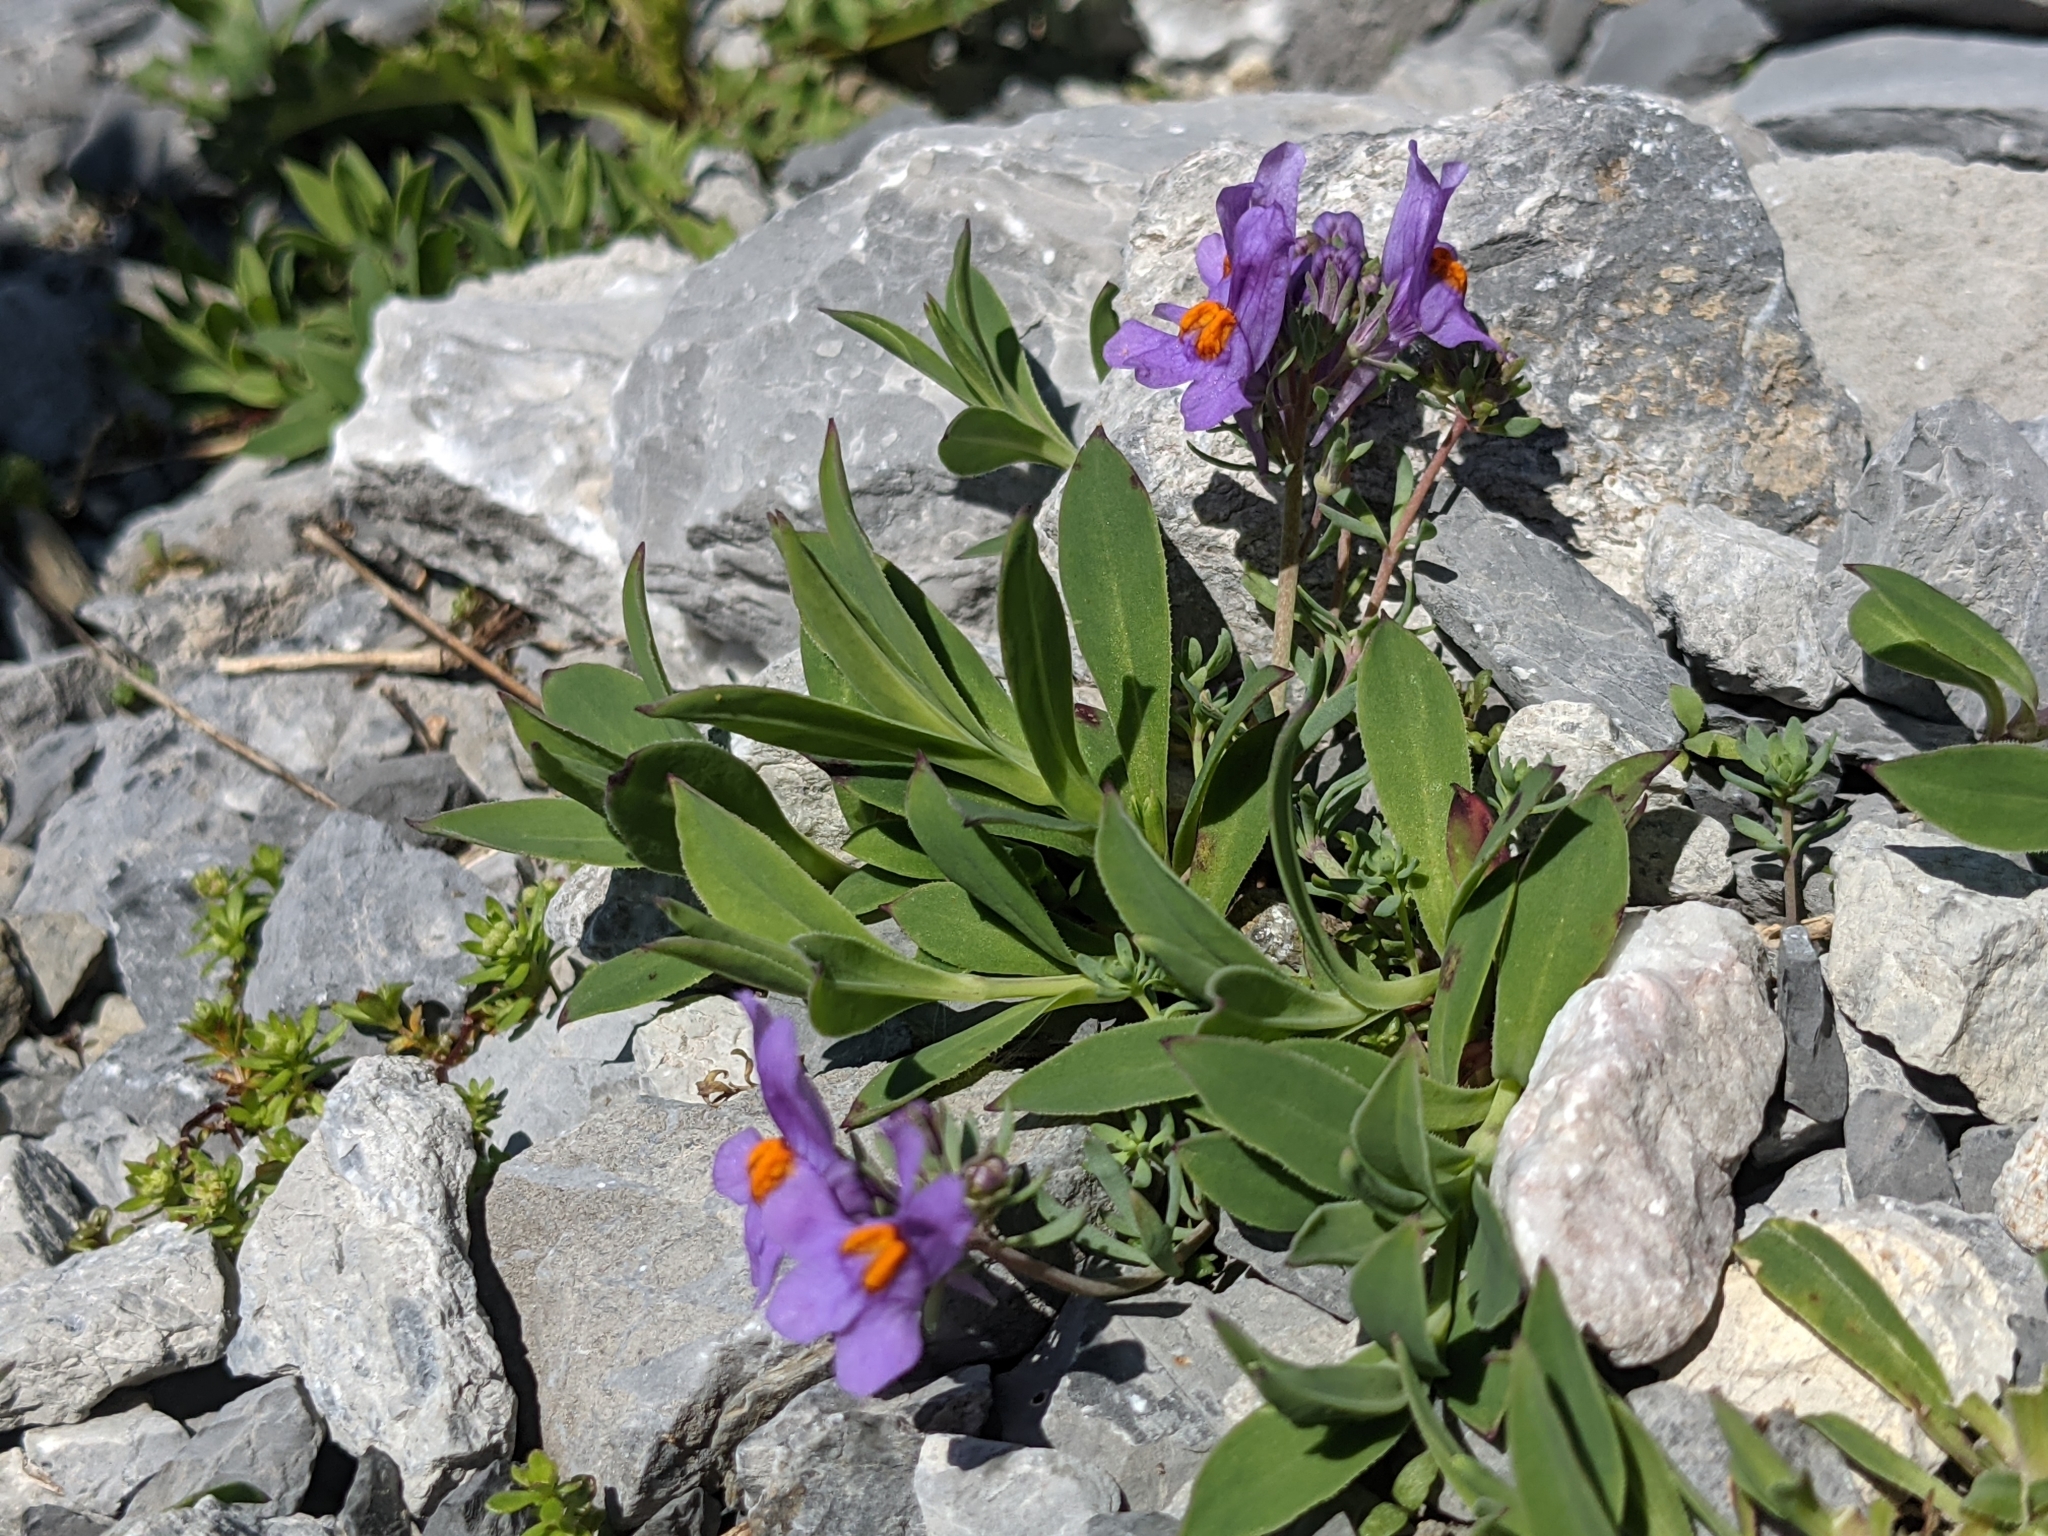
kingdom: Plantae
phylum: Tracheophyta
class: Magnoliopsida
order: Lamiales
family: Plantaginaceae
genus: Linaria
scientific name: Linaria alpina
